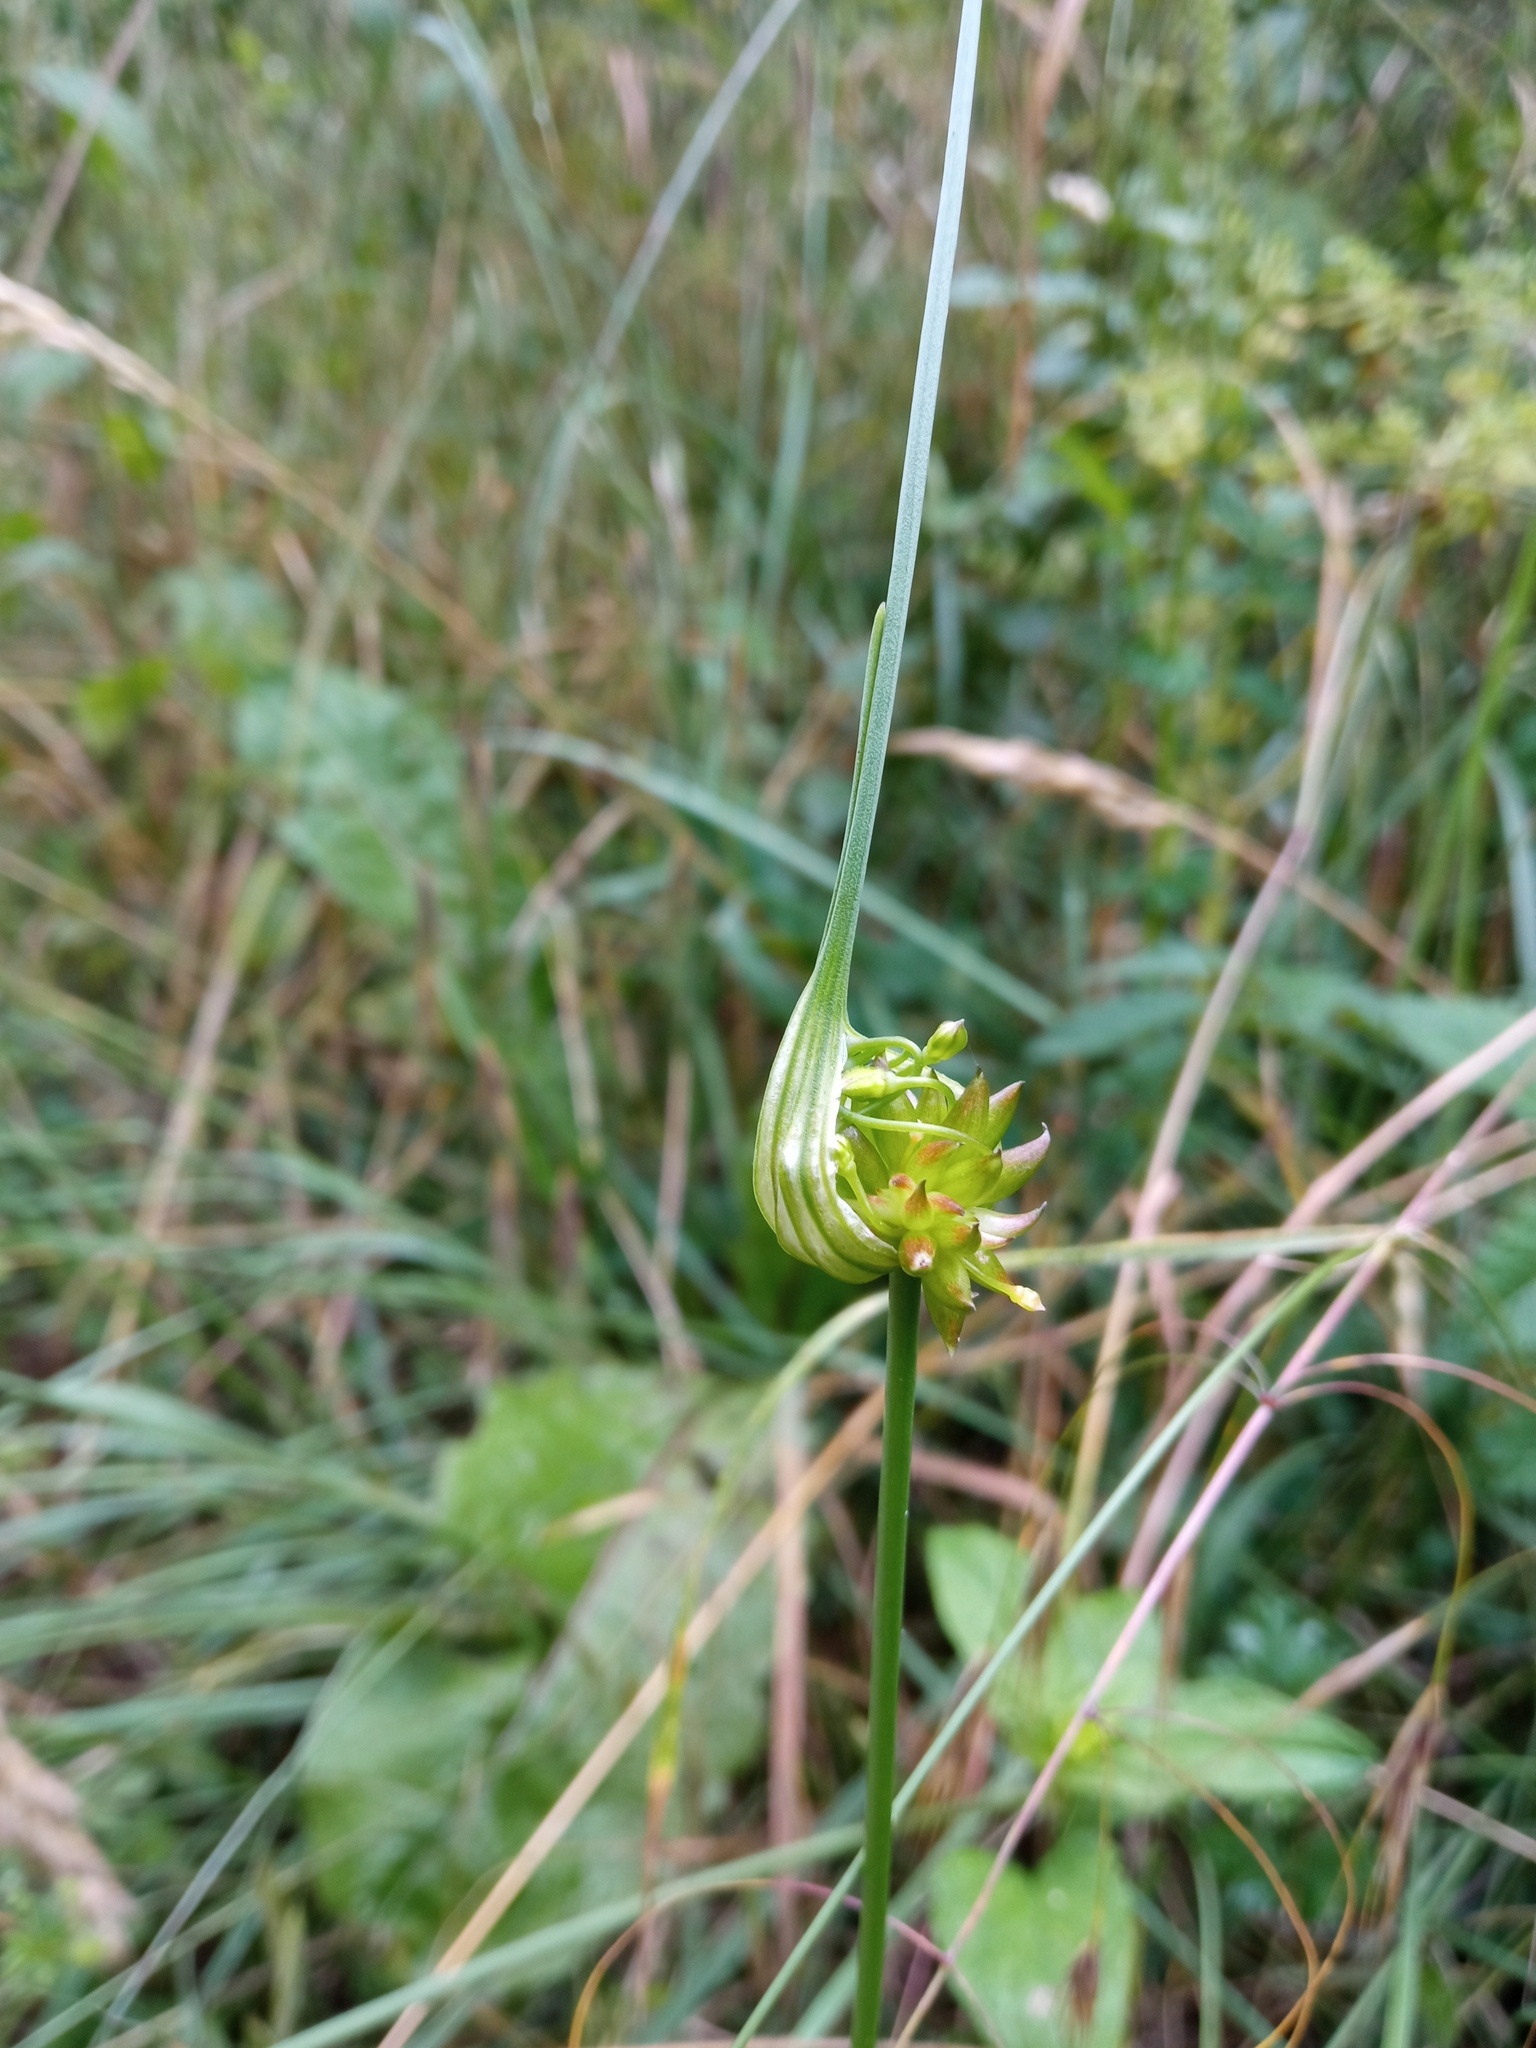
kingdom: Plantae
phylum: Tracheophyta
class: Liliopsida
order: Asparagales
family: Amaryllidaceae
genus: Allium
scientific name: Allium oleraceum
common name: Field garlic
